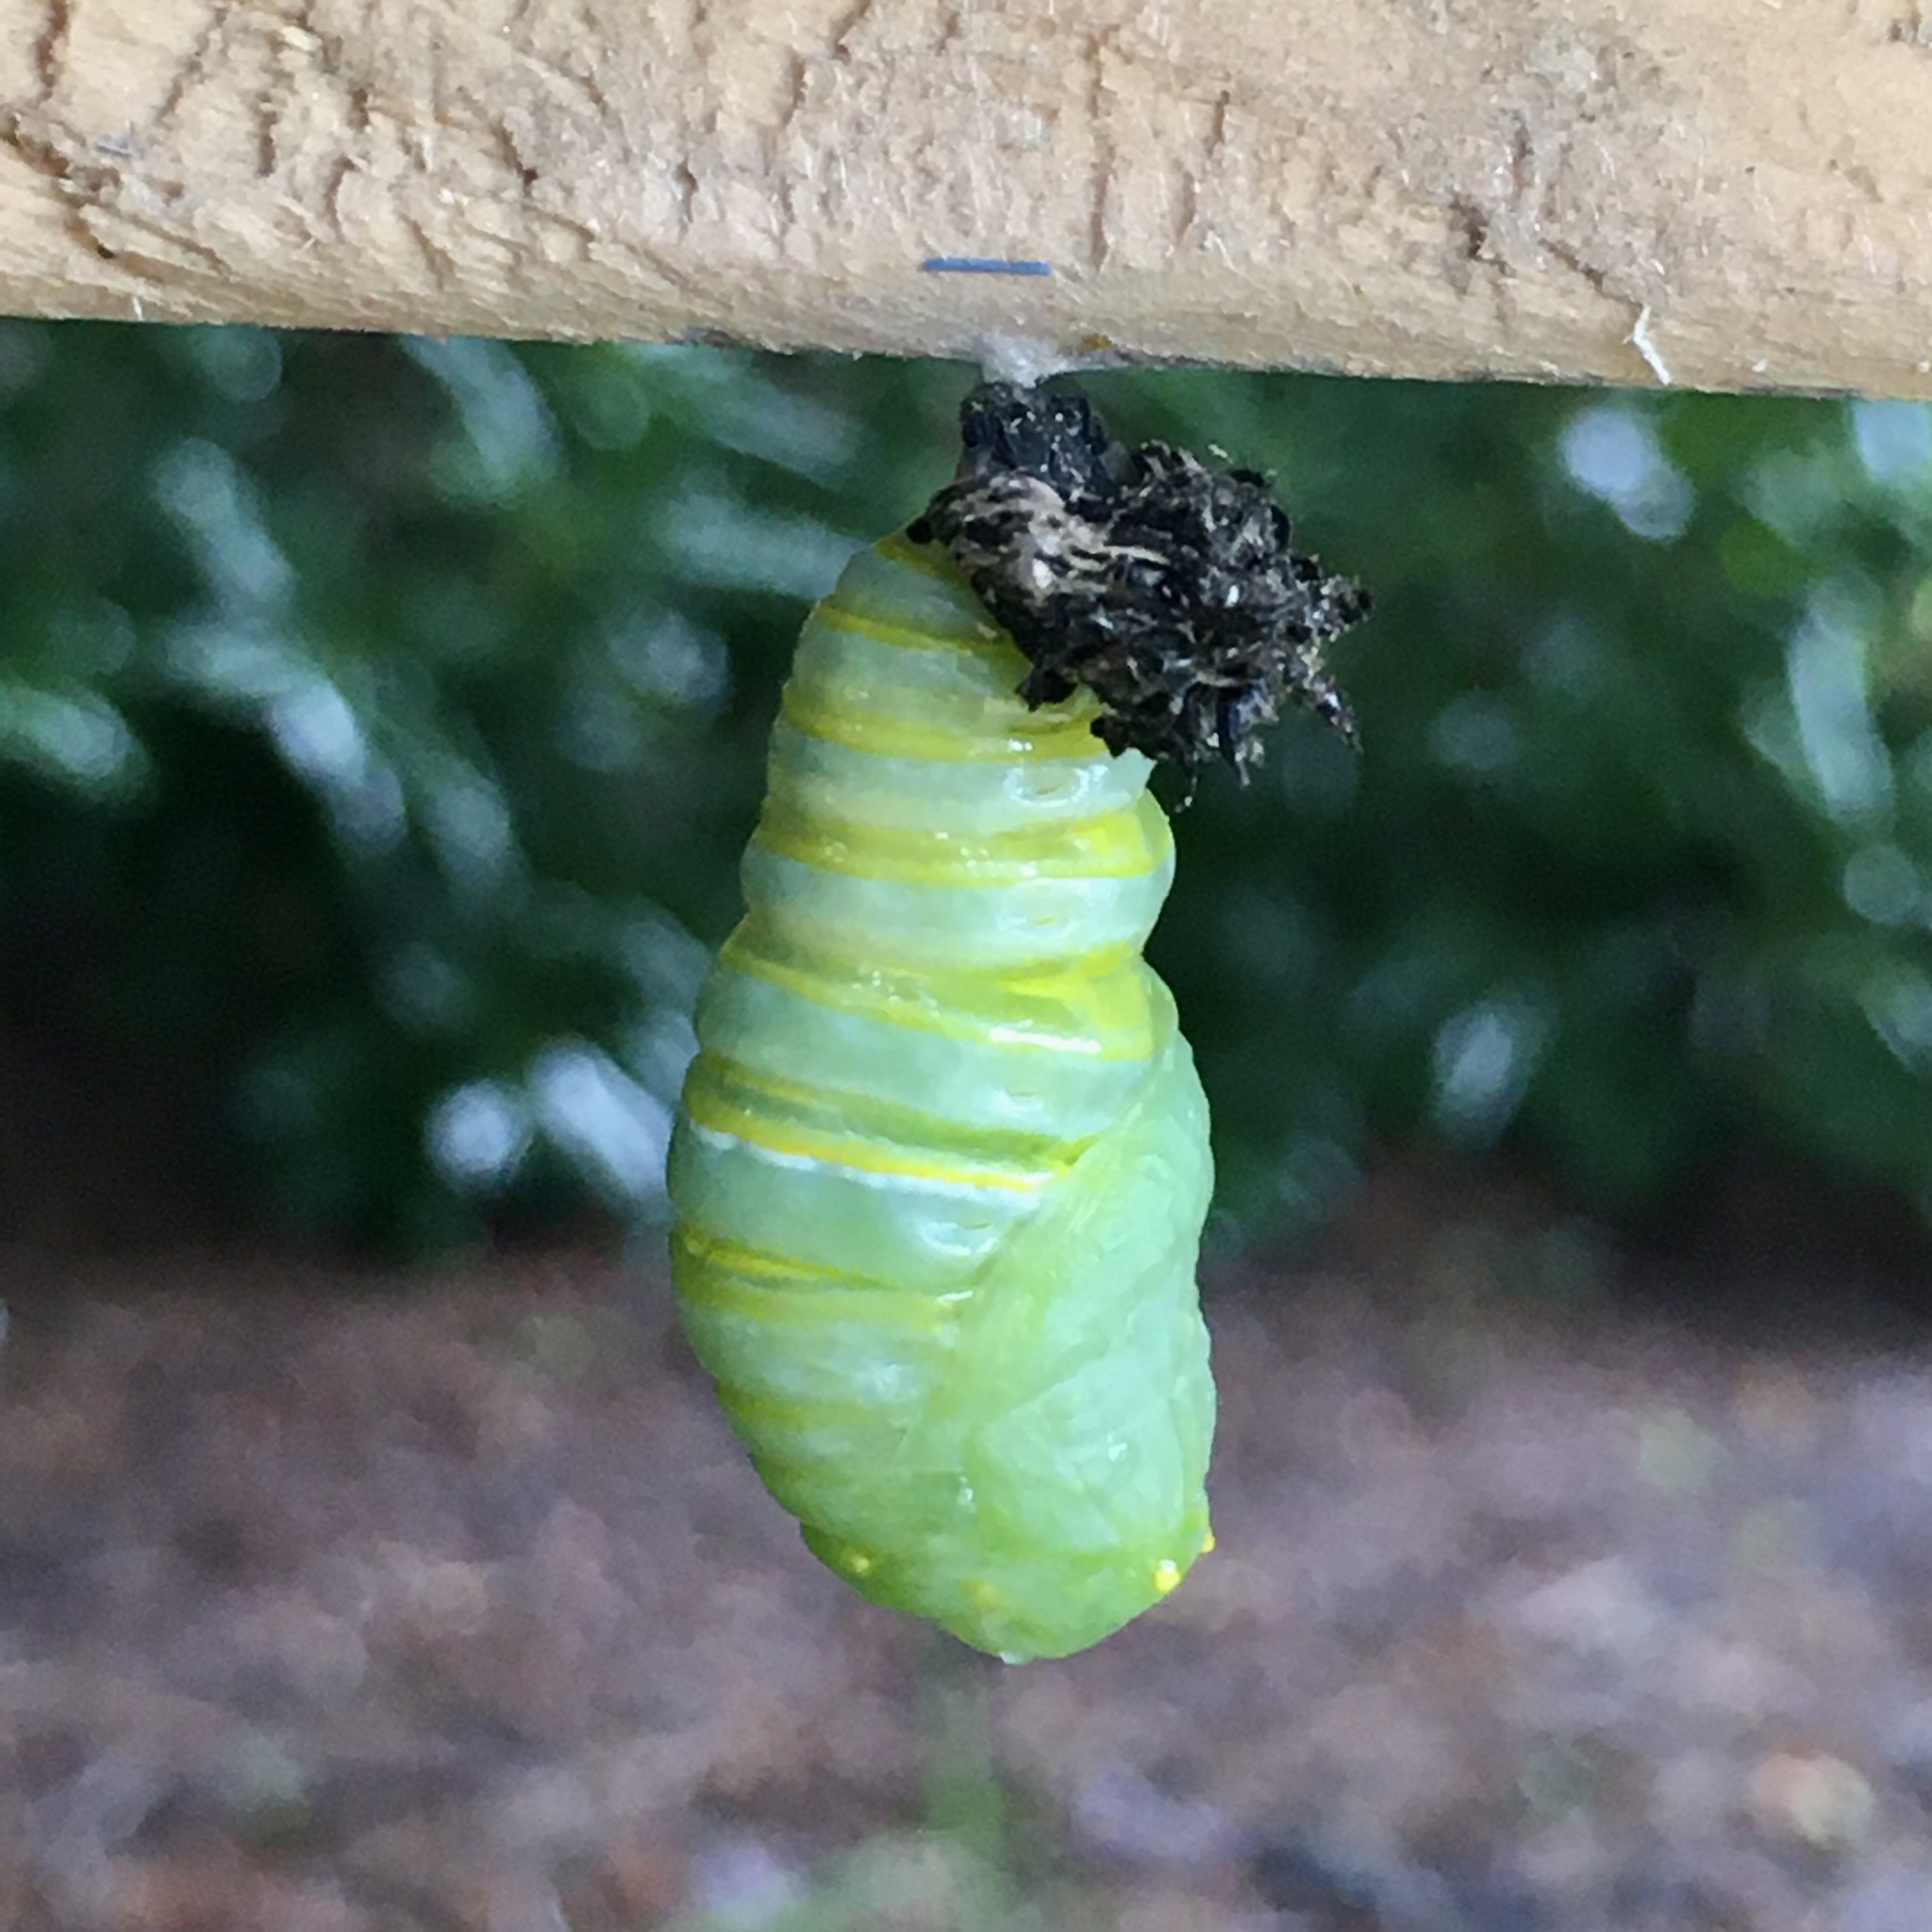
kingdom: Animalia
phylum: Arthropoda
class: Insecta
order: Lepidoptera
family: Nymphalidae
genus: Danaus
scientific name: Danaus plexippus
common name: Monarch
